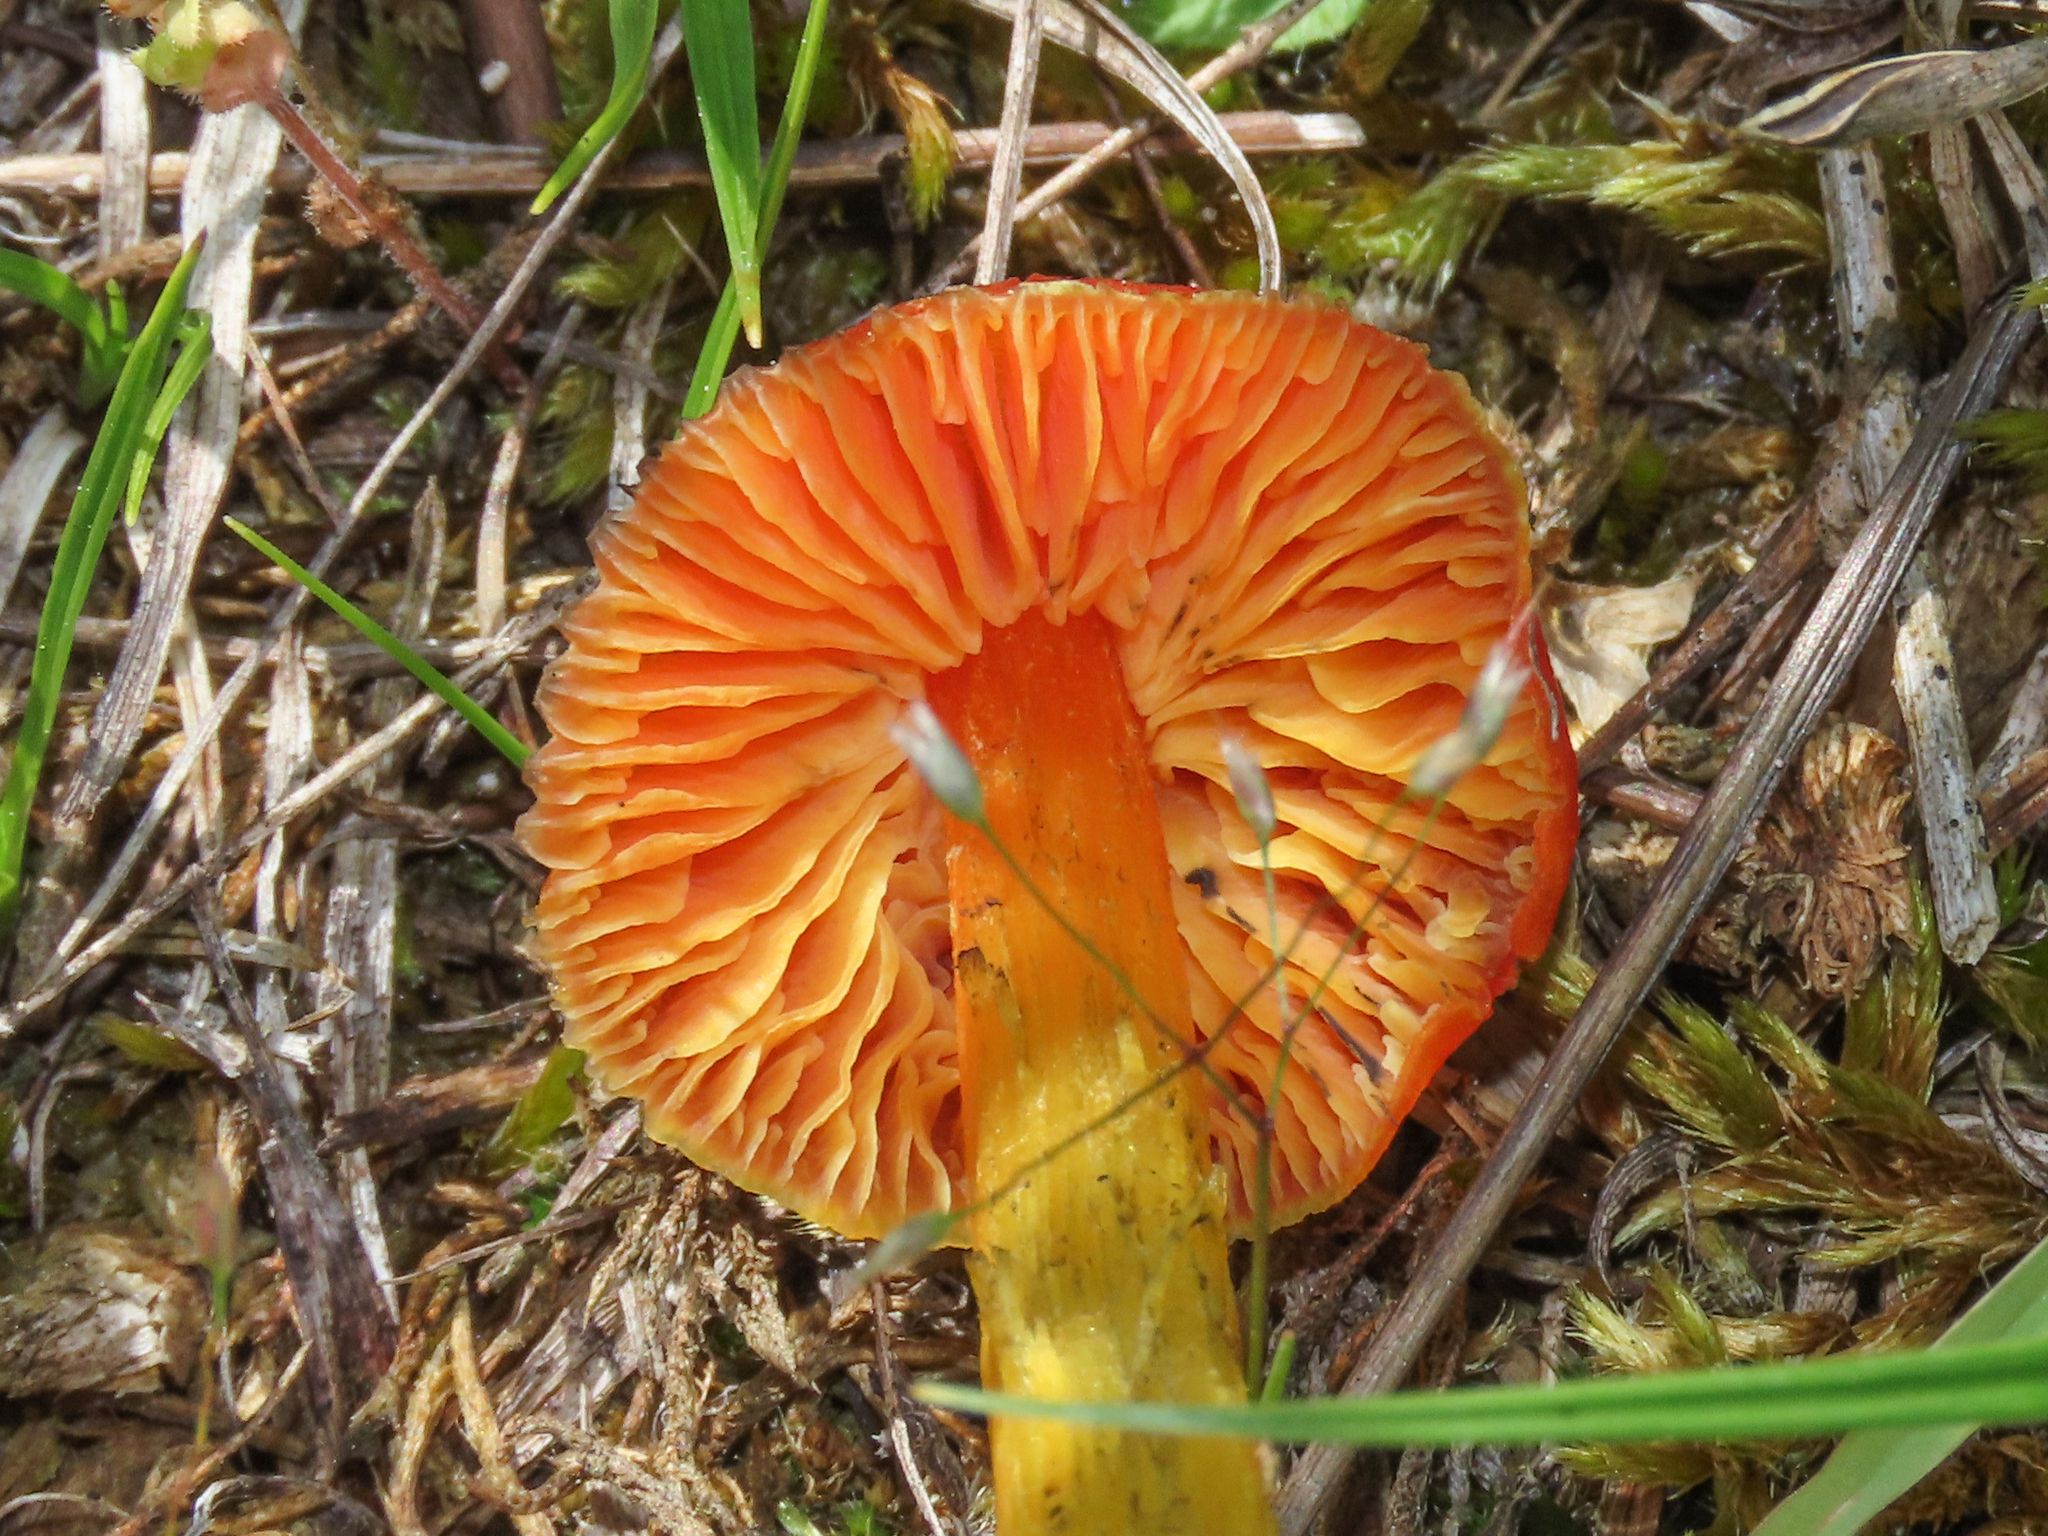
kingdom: Fungi
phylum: Basidiomycota
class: Agaricomycetes
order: Agaricales
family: Hygrophoraceae
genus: Hygrocybe
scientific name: Hygrocybe conica
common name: Blackening wax-cap
